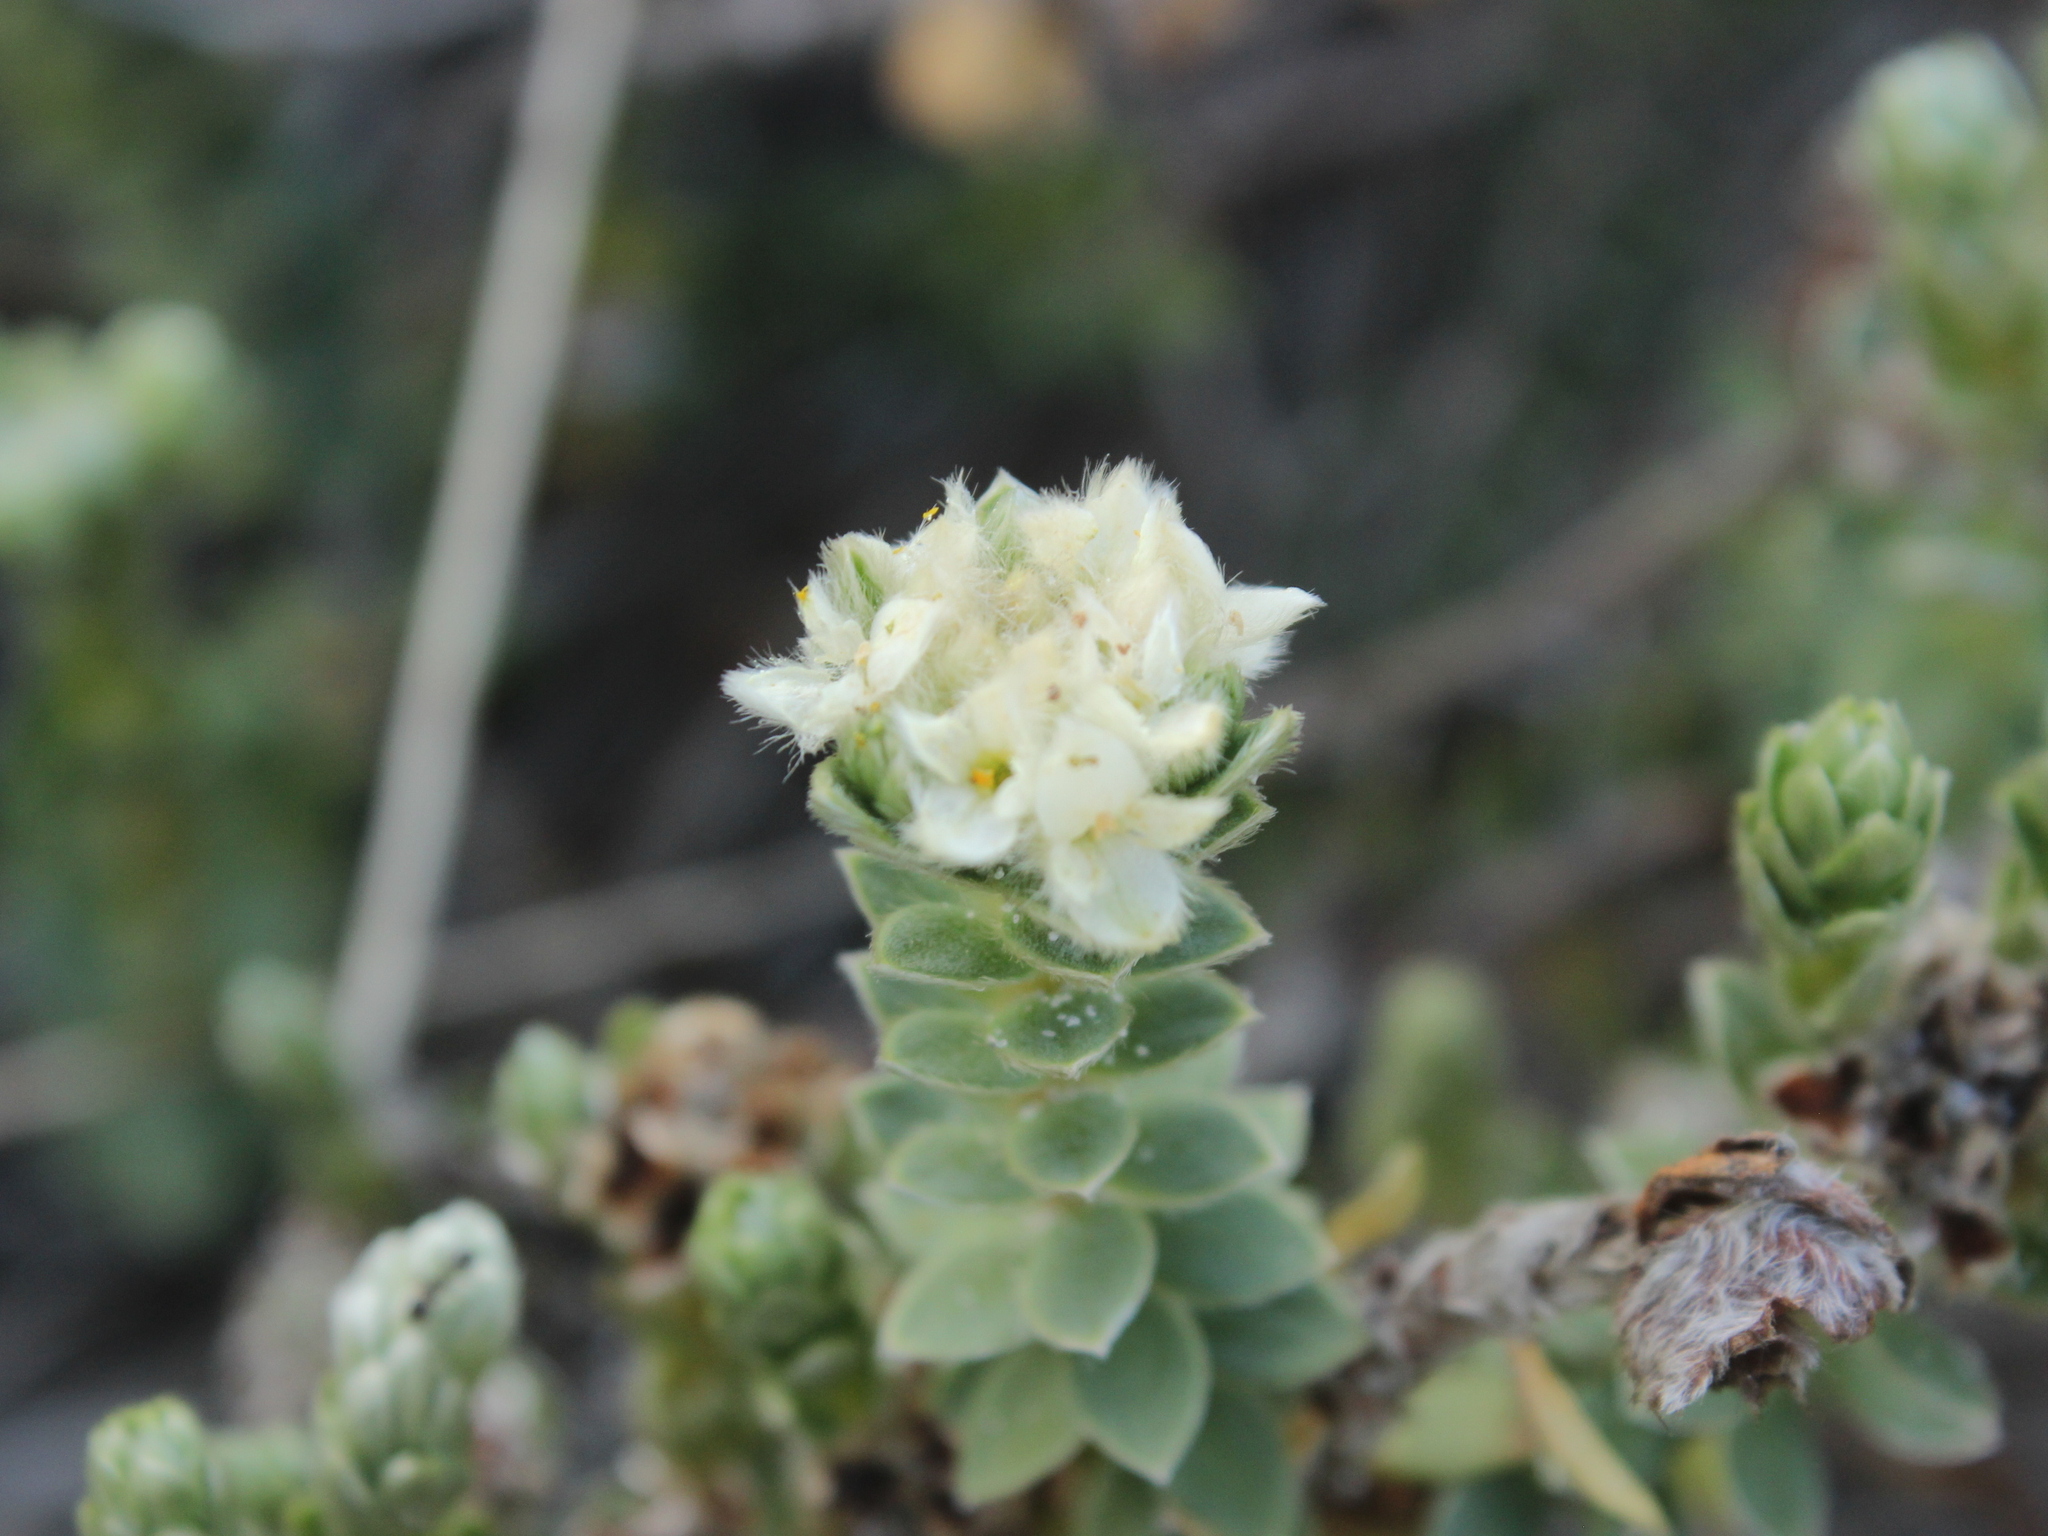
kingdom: Plantae
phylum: Tracheophyta
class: Magnoliopsida
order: Malvales
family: Thymelaeaceae
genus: Pimelea
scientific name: Pimelea villosa
